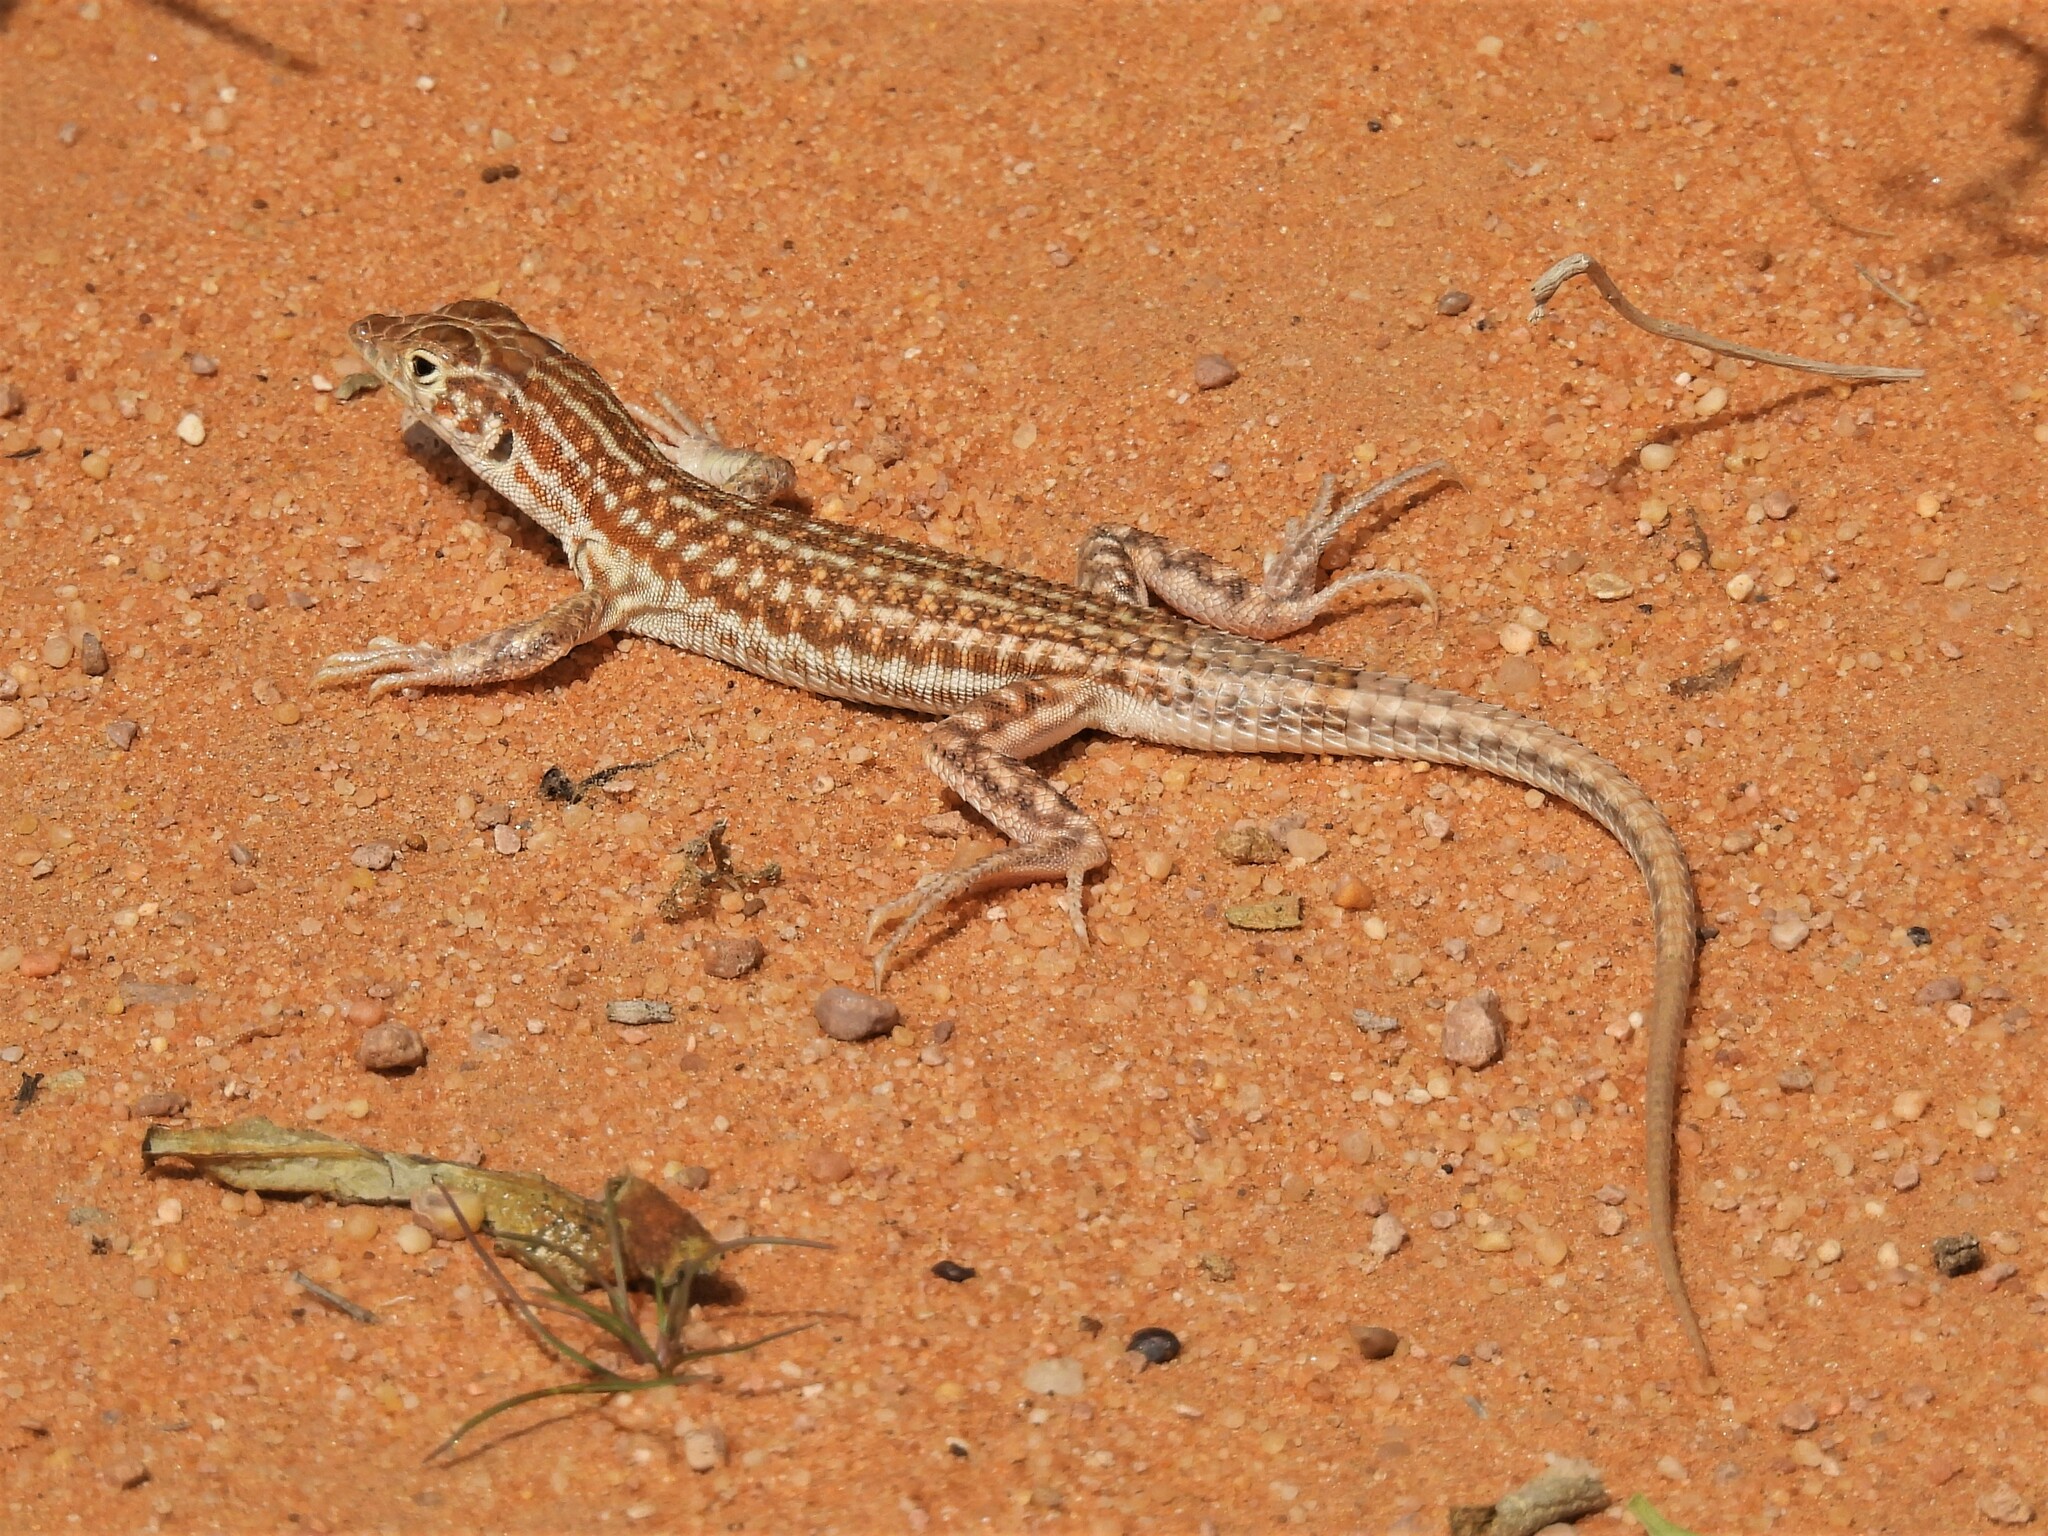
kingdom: Animalia
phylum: Chordata
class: Squamata
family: Lacertidae
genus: Acanthodactylus
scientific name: Acanthodactylus opheodurus
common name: Arnold's fringe-fingered lizard
